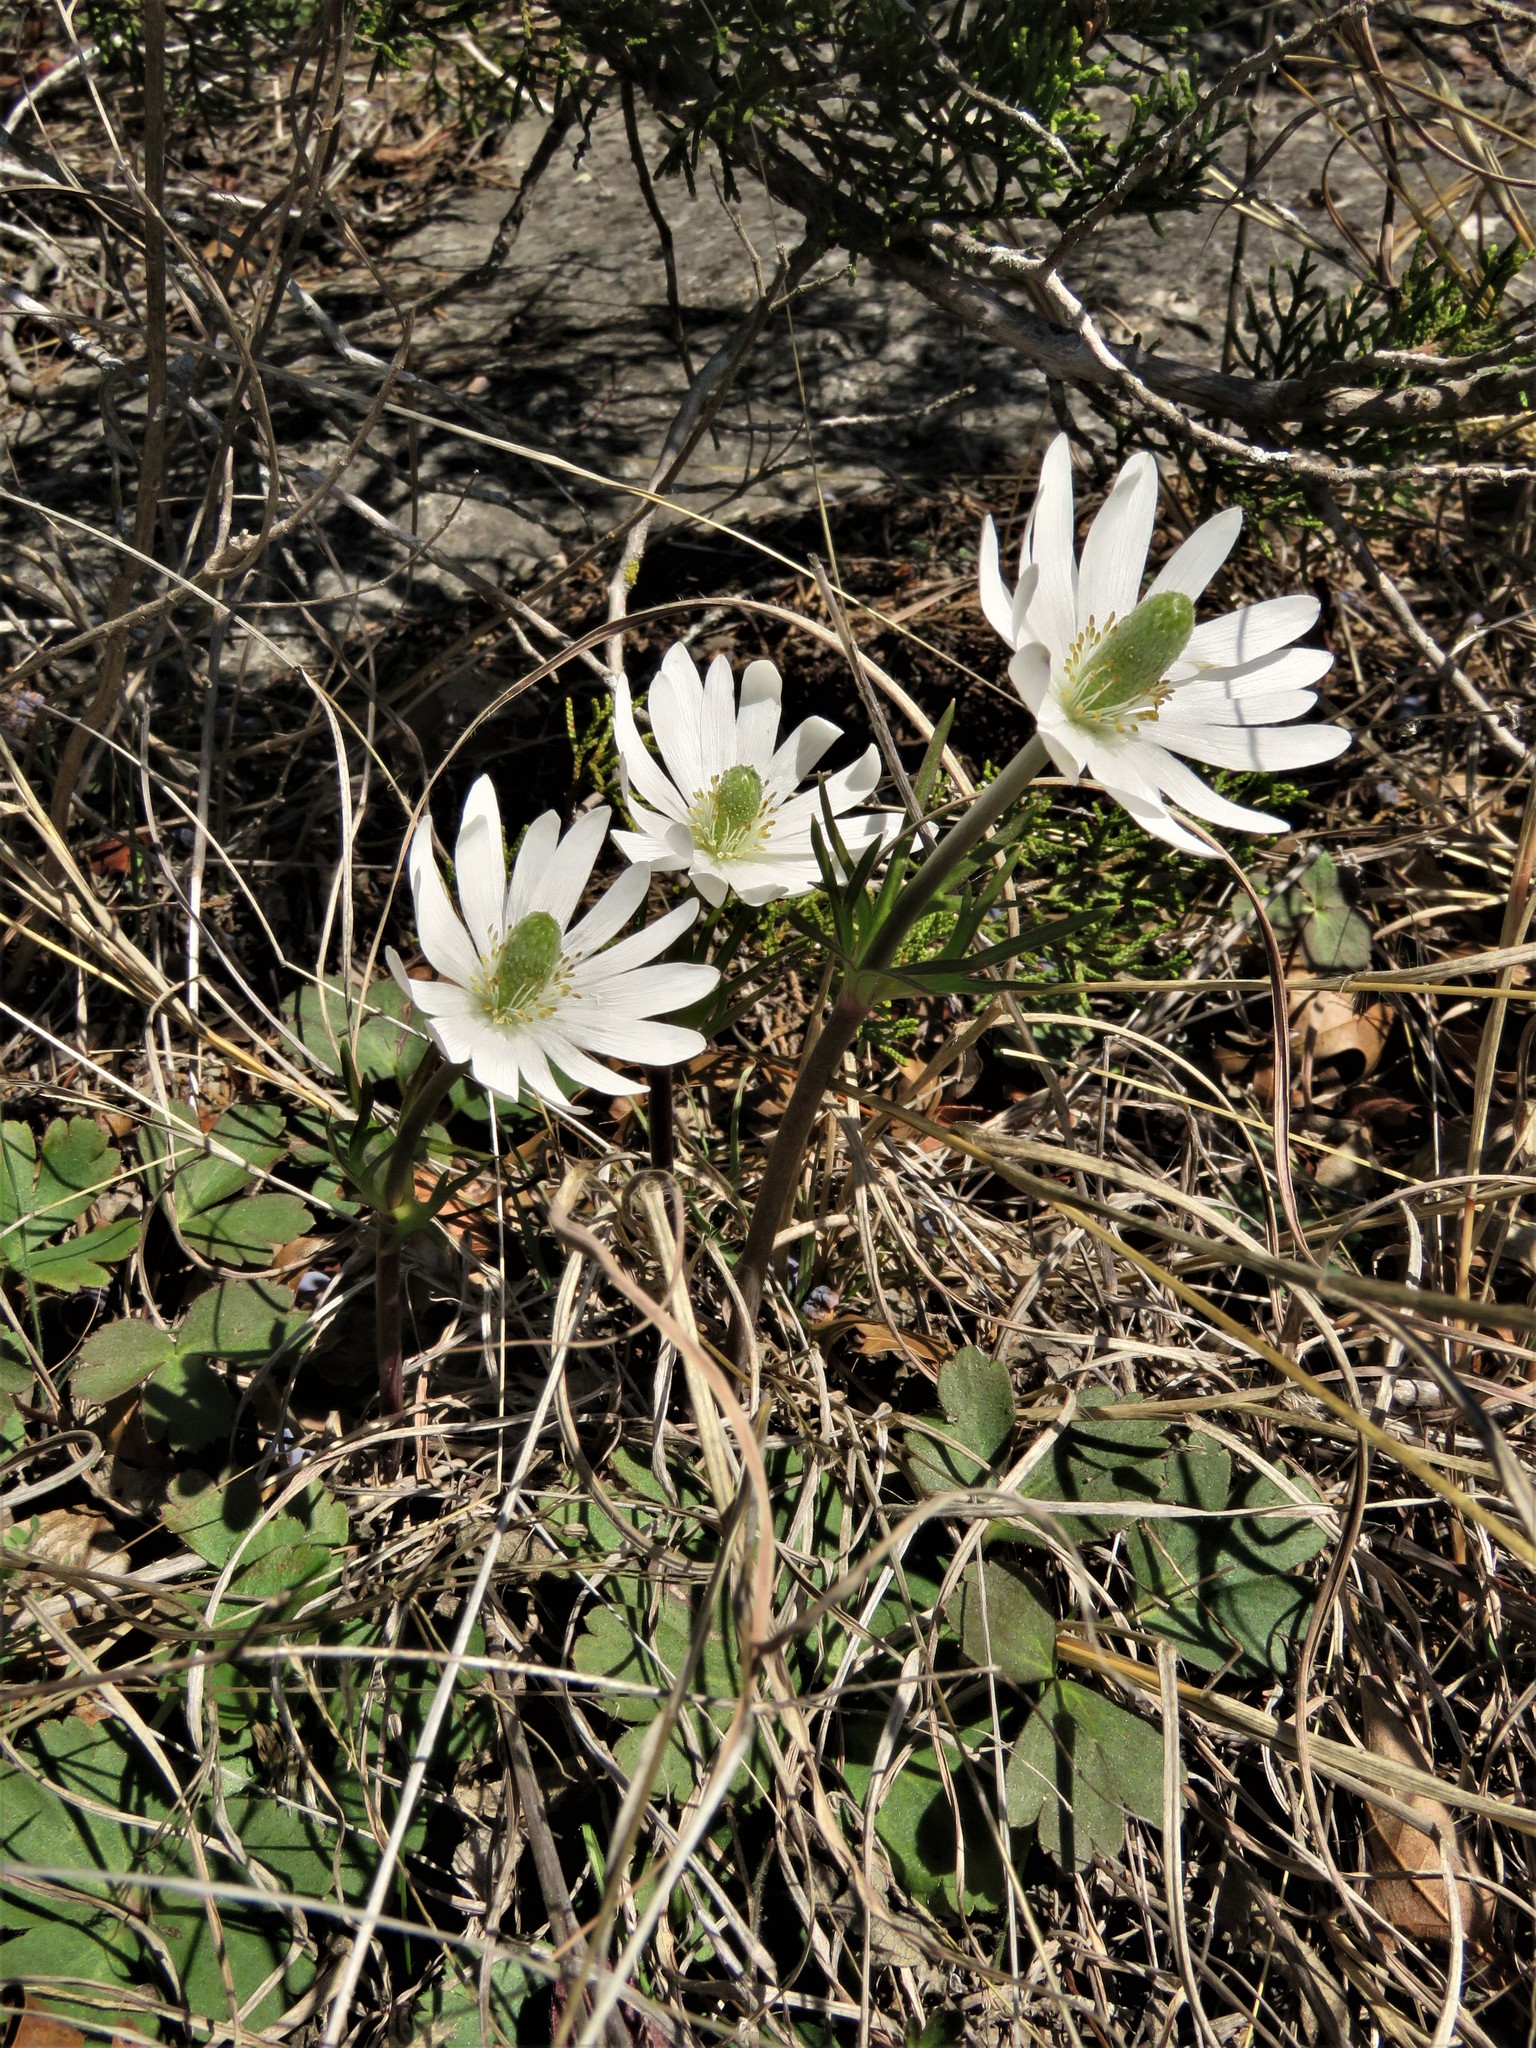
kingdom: Plantae
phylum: Tracheophyta
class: Magnoliopsida
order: Ranunculales
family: Ranunculaceae
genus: Anemone
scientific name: Anemone berlandieri
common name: Ten-petal anemone
